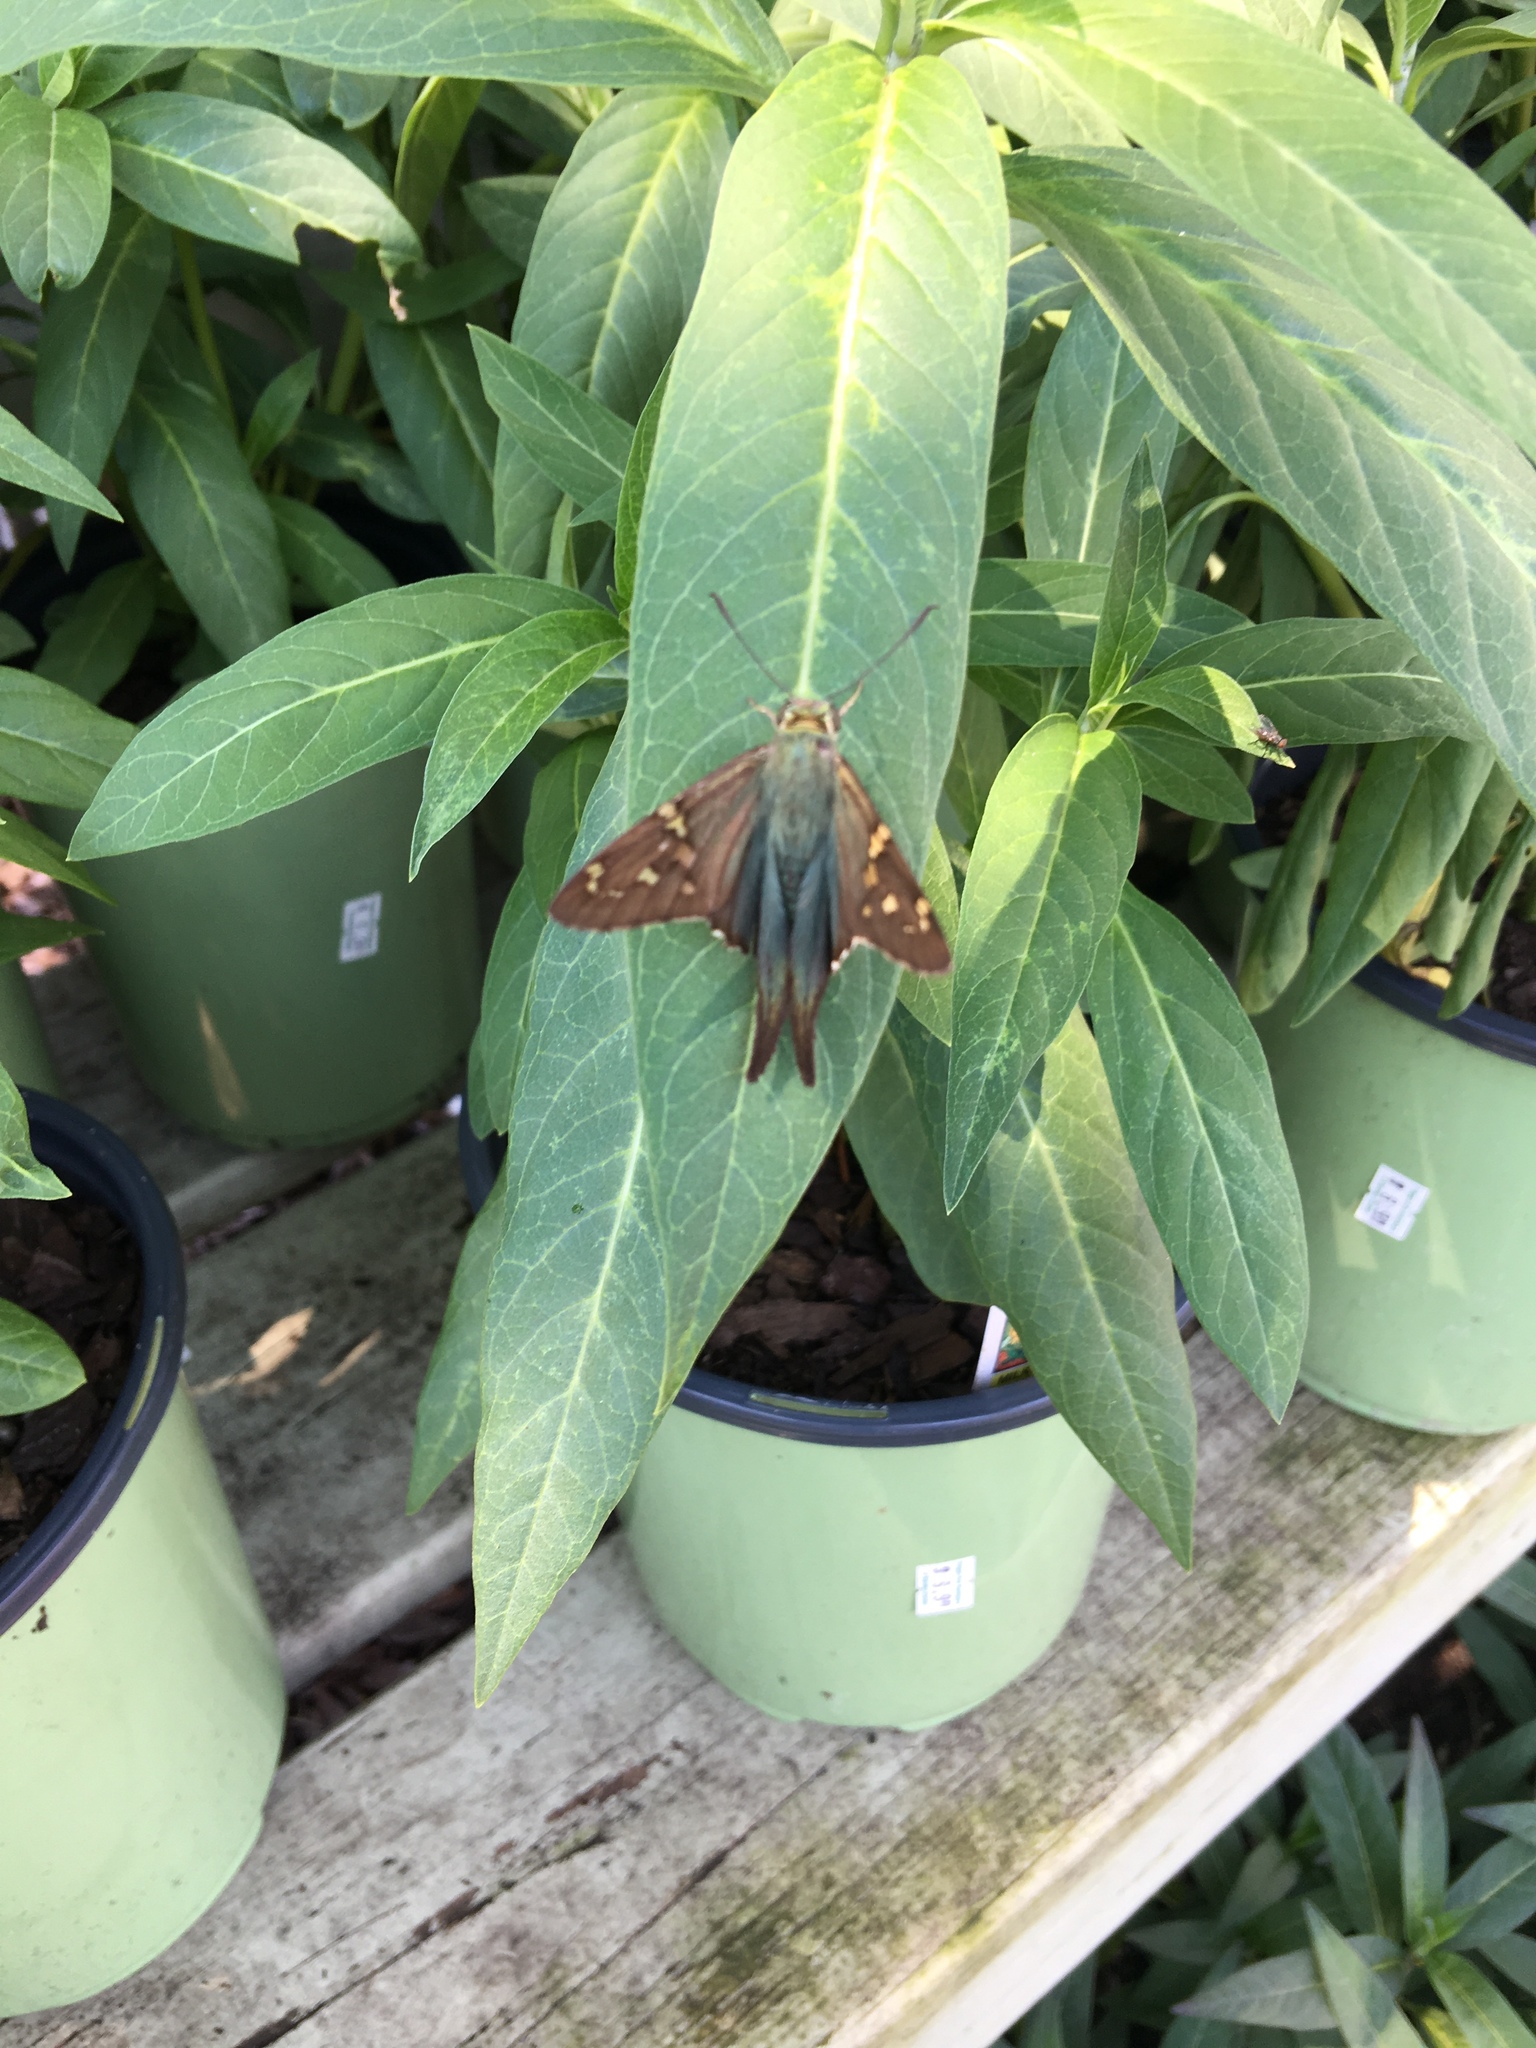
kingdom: Animalia
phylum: Arthropoda
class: Insecta
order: Lepidoptera
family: Hesperiidae
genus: Urbanus
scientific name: Urbanus proteus
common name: Long-tailed skipper
